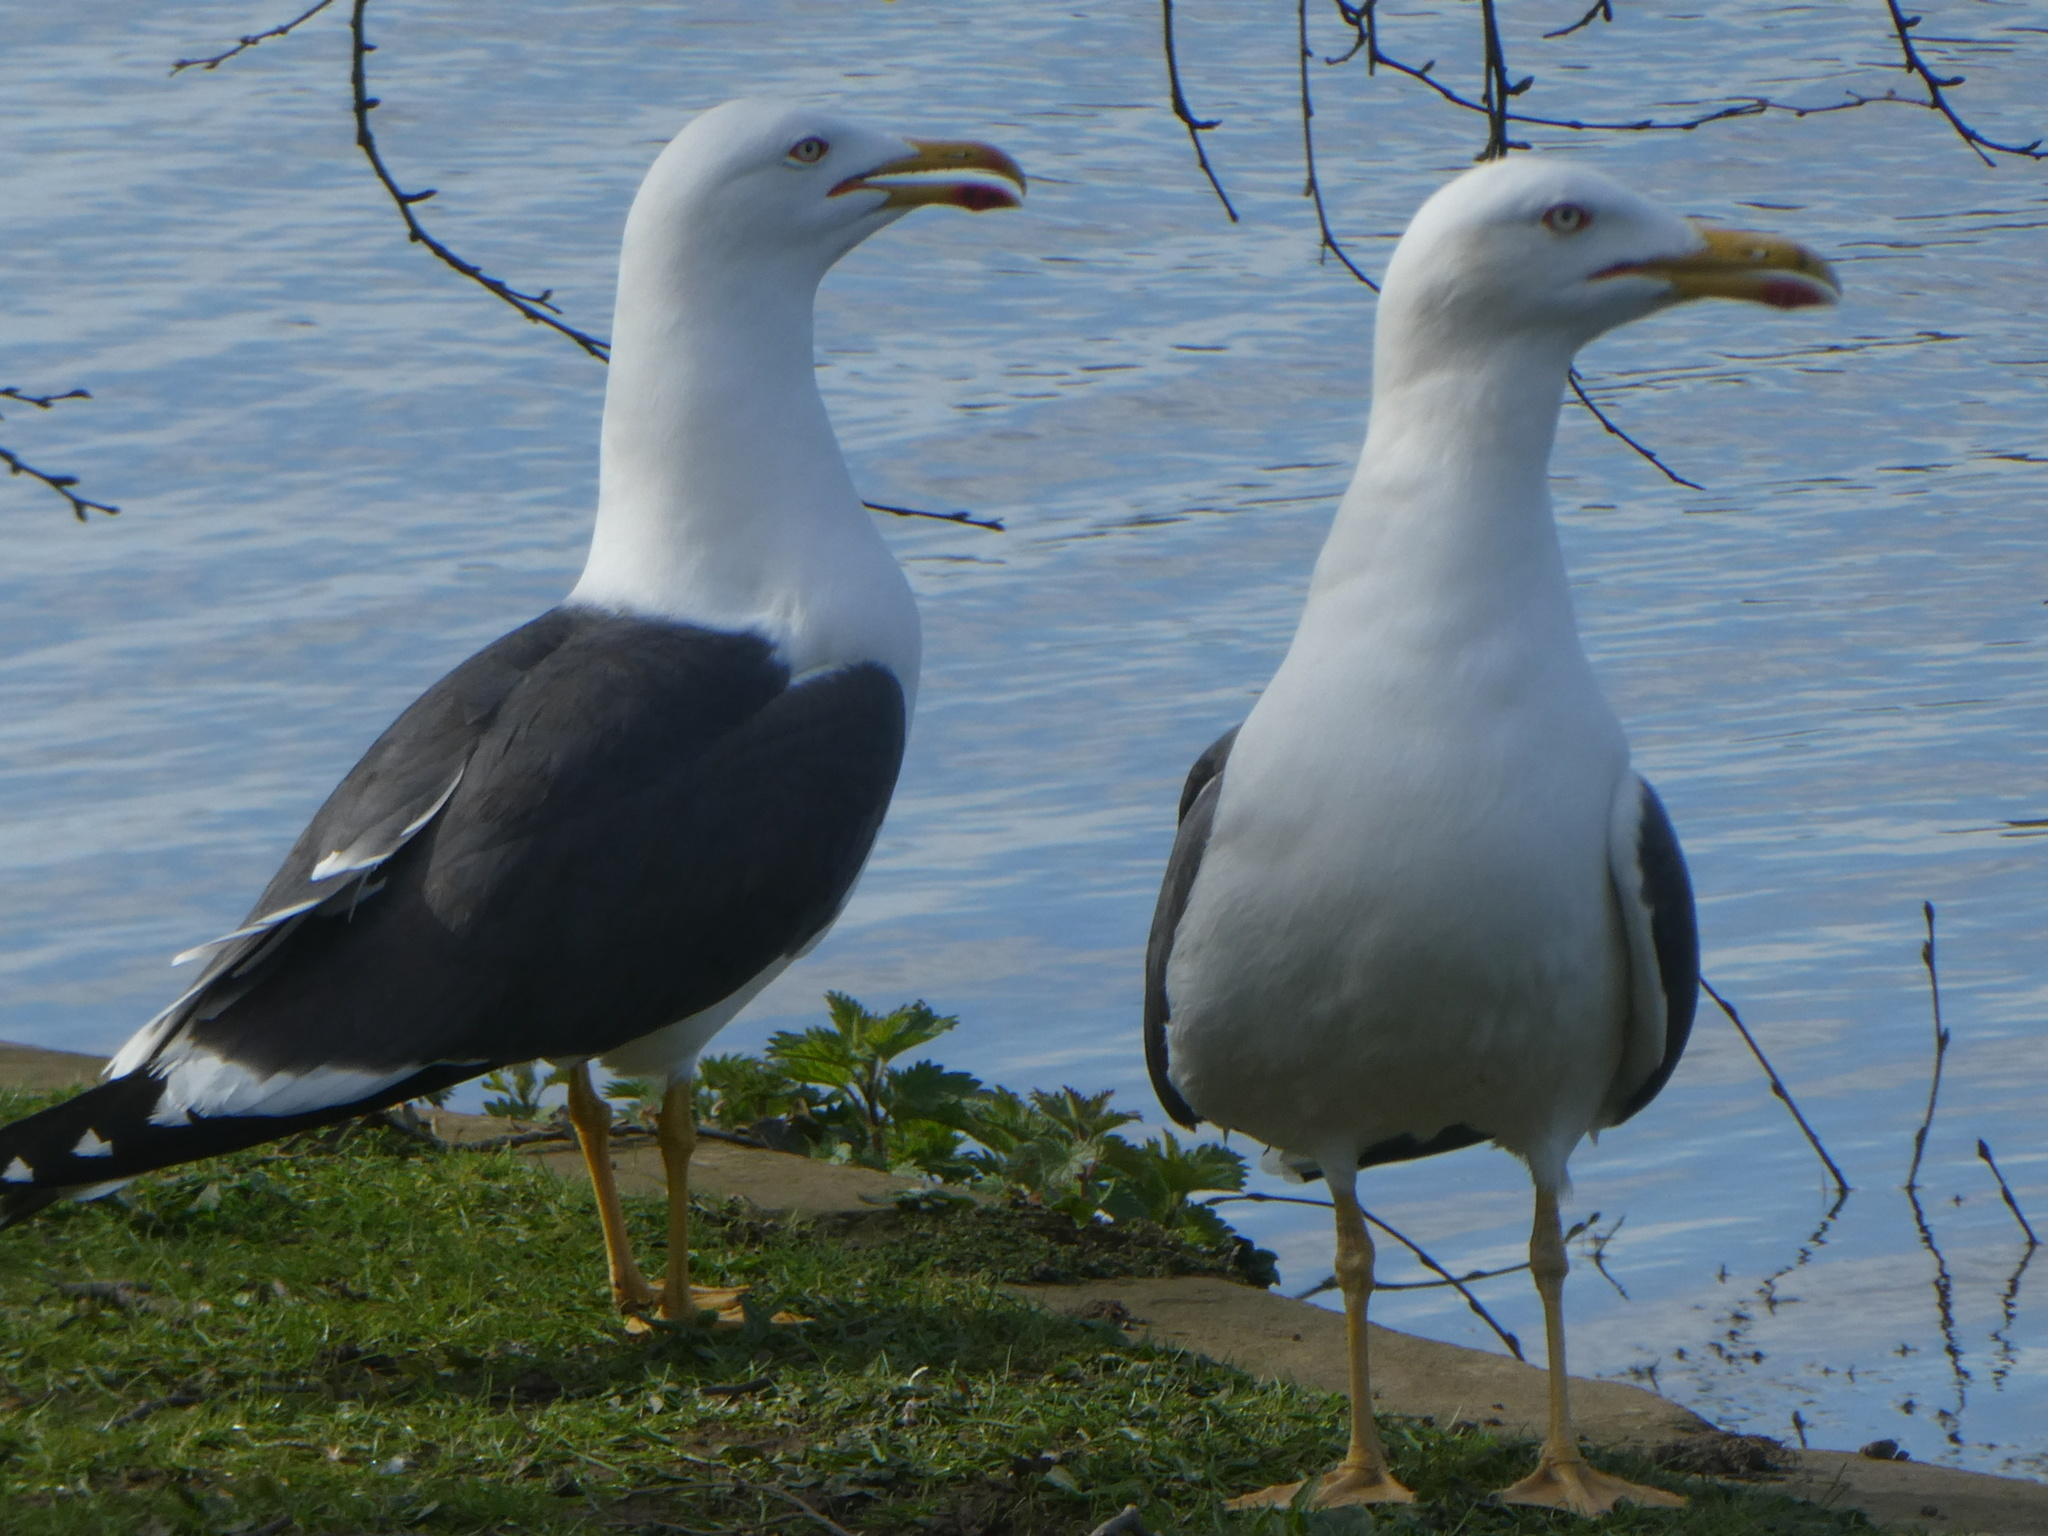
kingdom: Animalia
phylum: Chordata
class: Aves
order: Charadriiformes
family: Laridae
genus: Larus
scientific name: Larus fuscus
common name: Lesser black-backed gull
